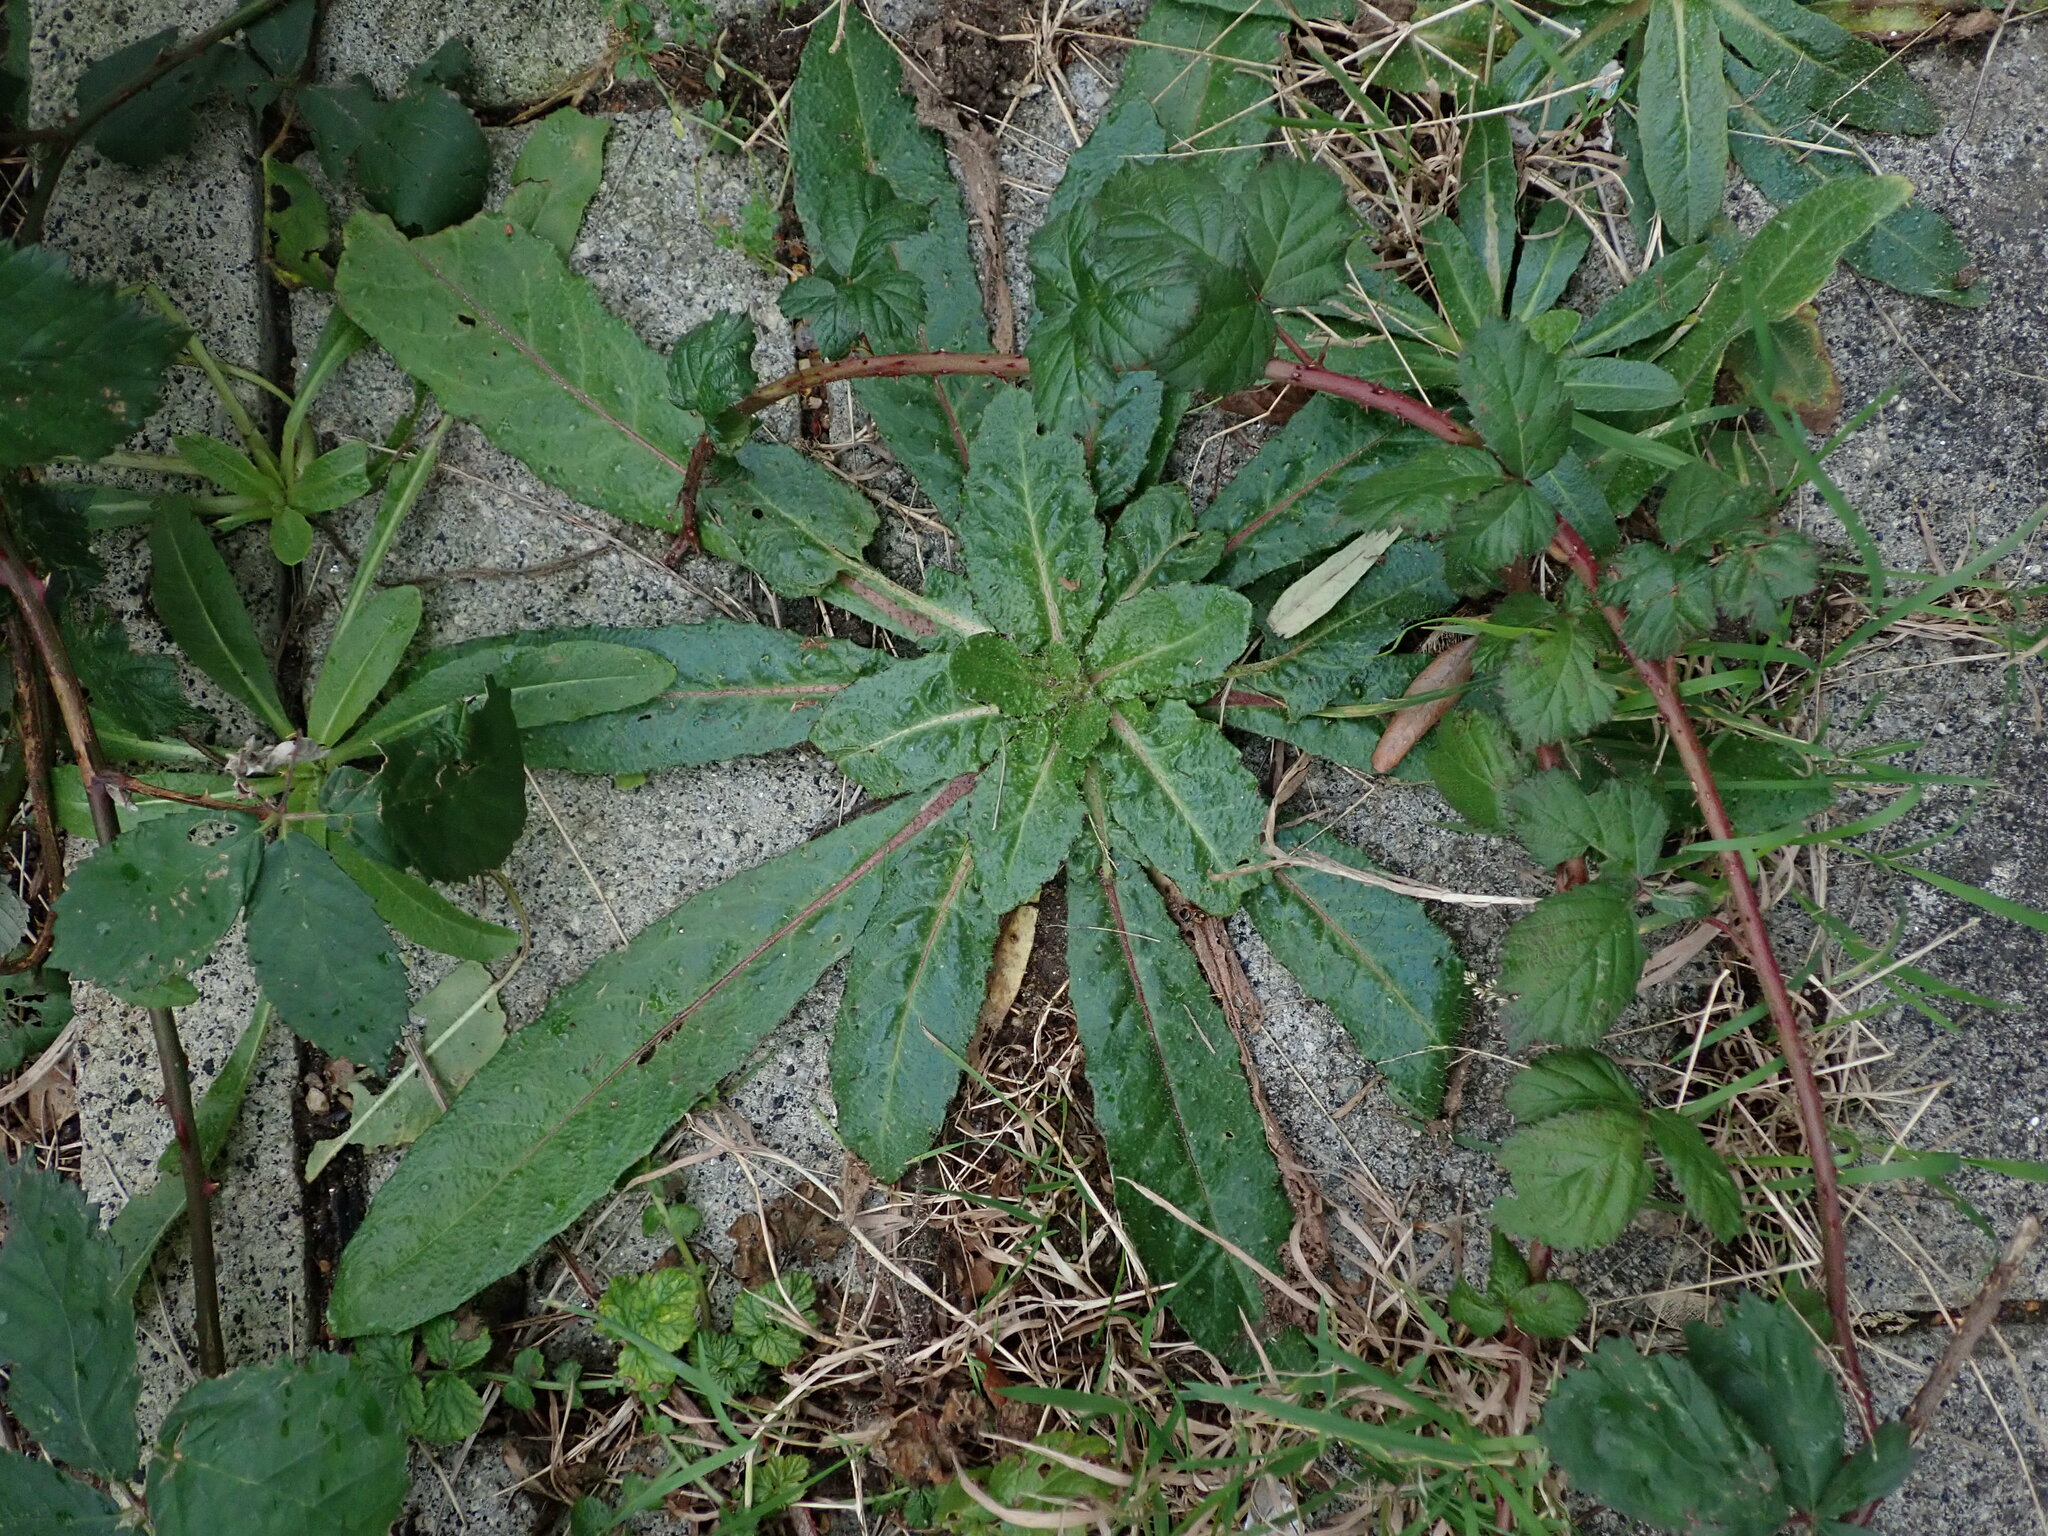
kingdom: Plantae
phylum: Tracheophyta
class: Magnoliopsida
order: Asterales
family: Asteraceae
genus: Helminthotheca
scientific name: Helminthotheca echioides
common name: Ox-tongue
